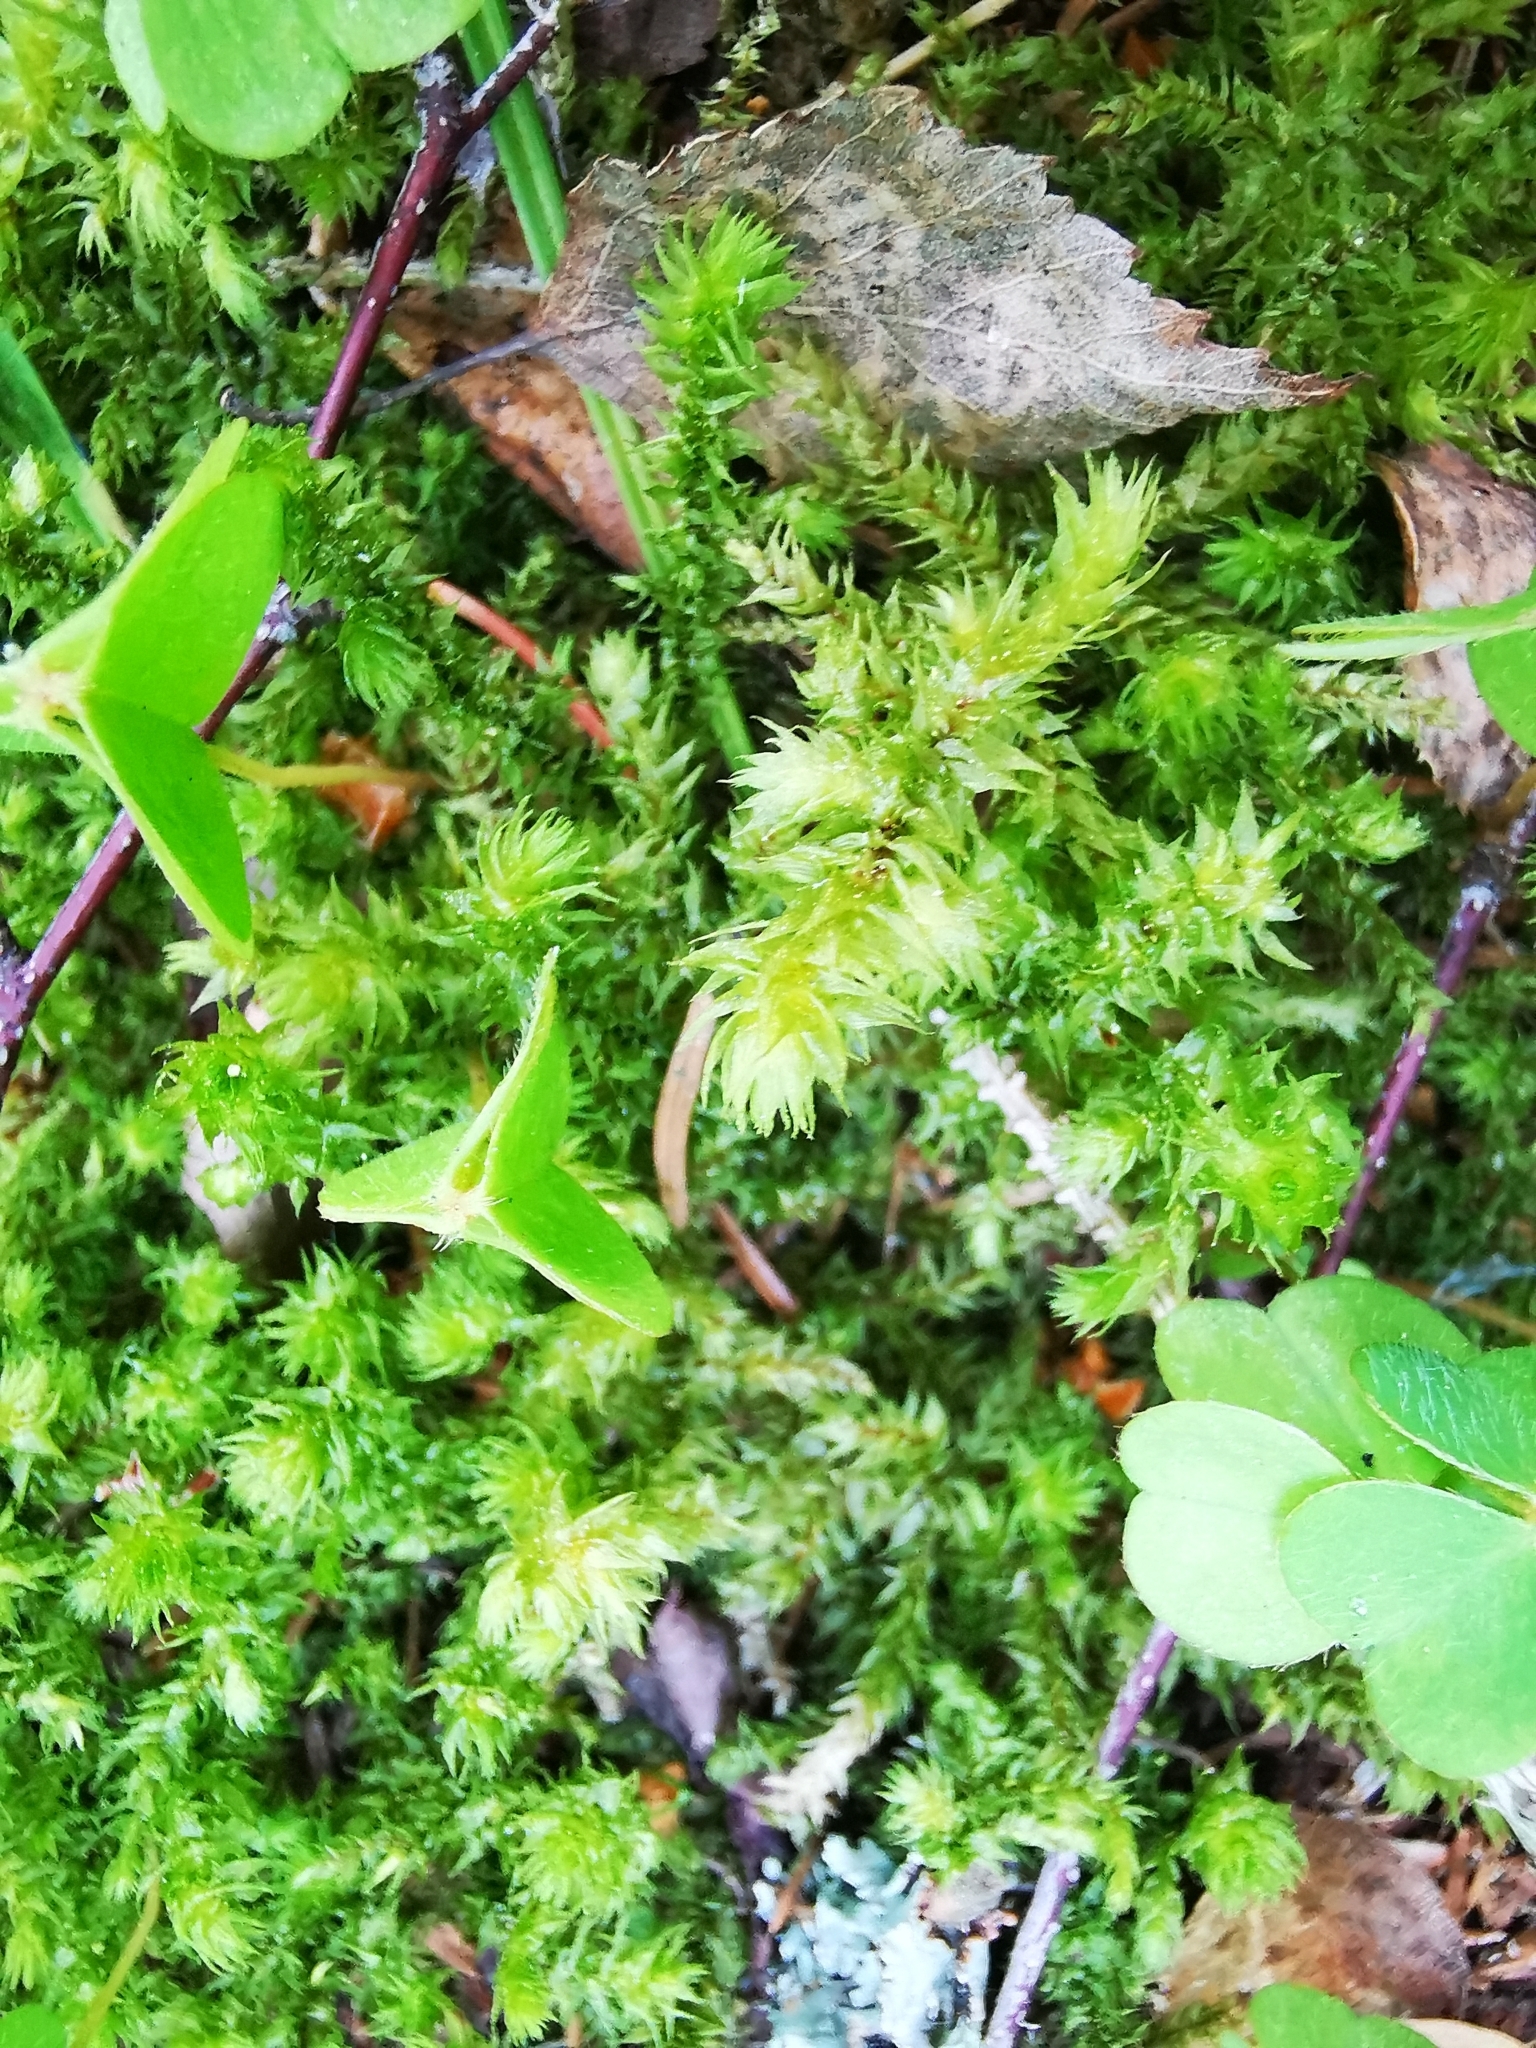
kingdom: Plantae
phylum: Bryophyta
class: Bryopsida
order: Hypnales
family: Hylocomiaceae
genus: Hylocomiadelphus
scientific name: Hylocomiadelphus triquetrus
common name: Rough goose neck moss
